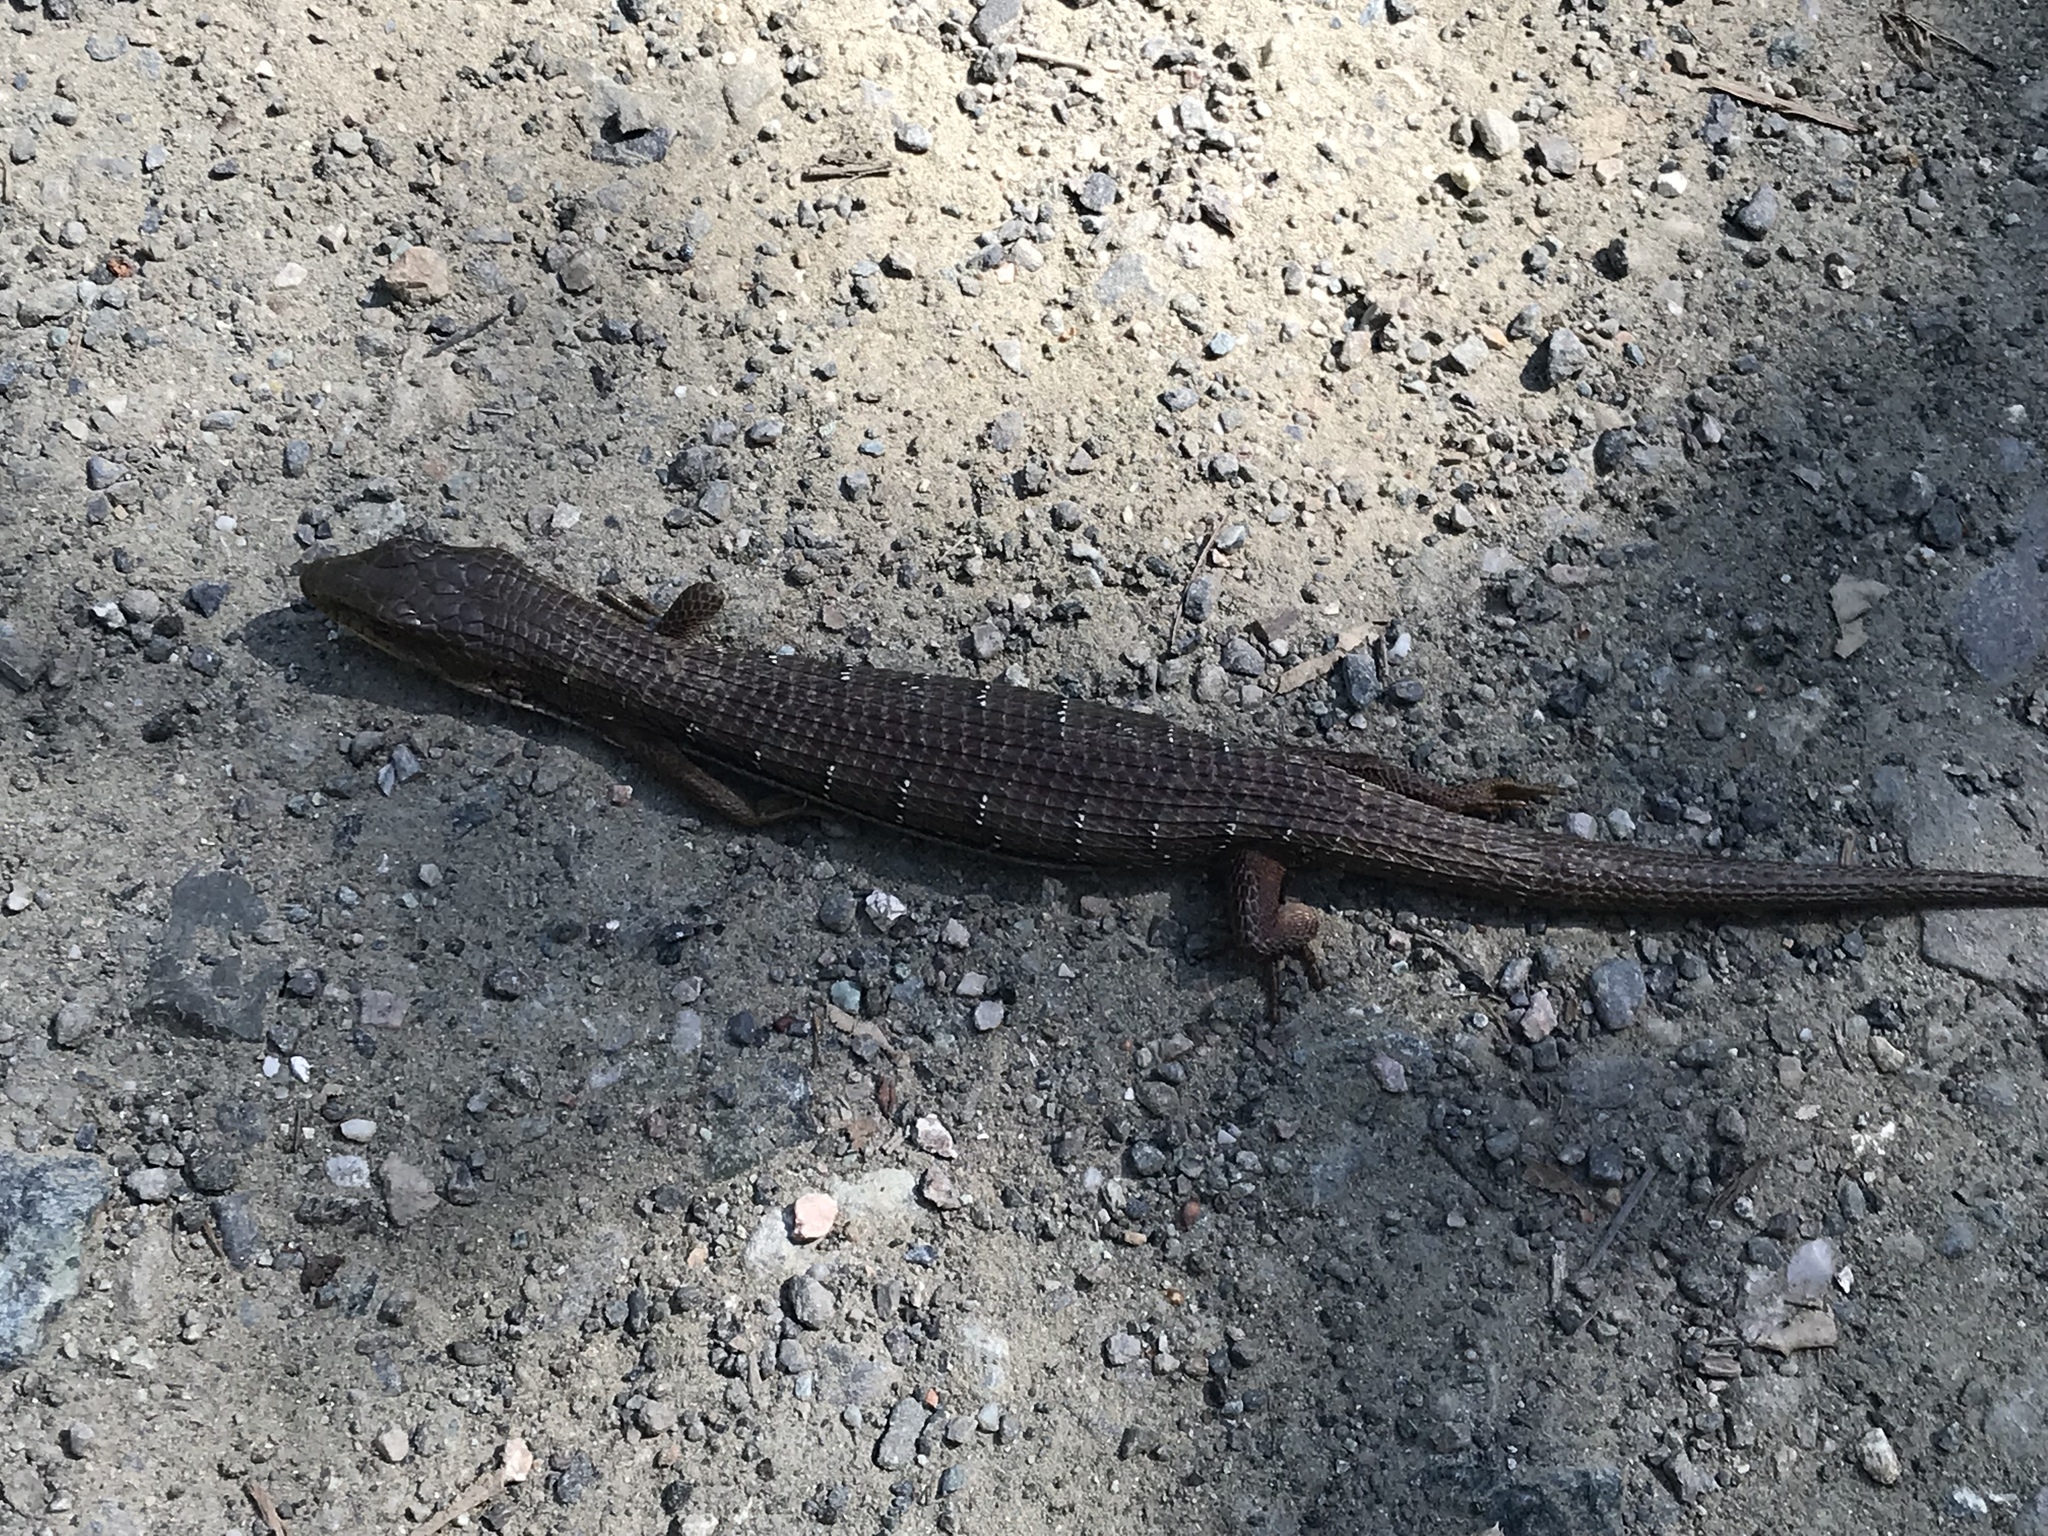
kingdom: Animalia
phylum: Chordata
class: Squamata
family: Anguidae
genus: Elgaria
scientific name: Elgaria multicarinata
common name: Southern alligator lizard
